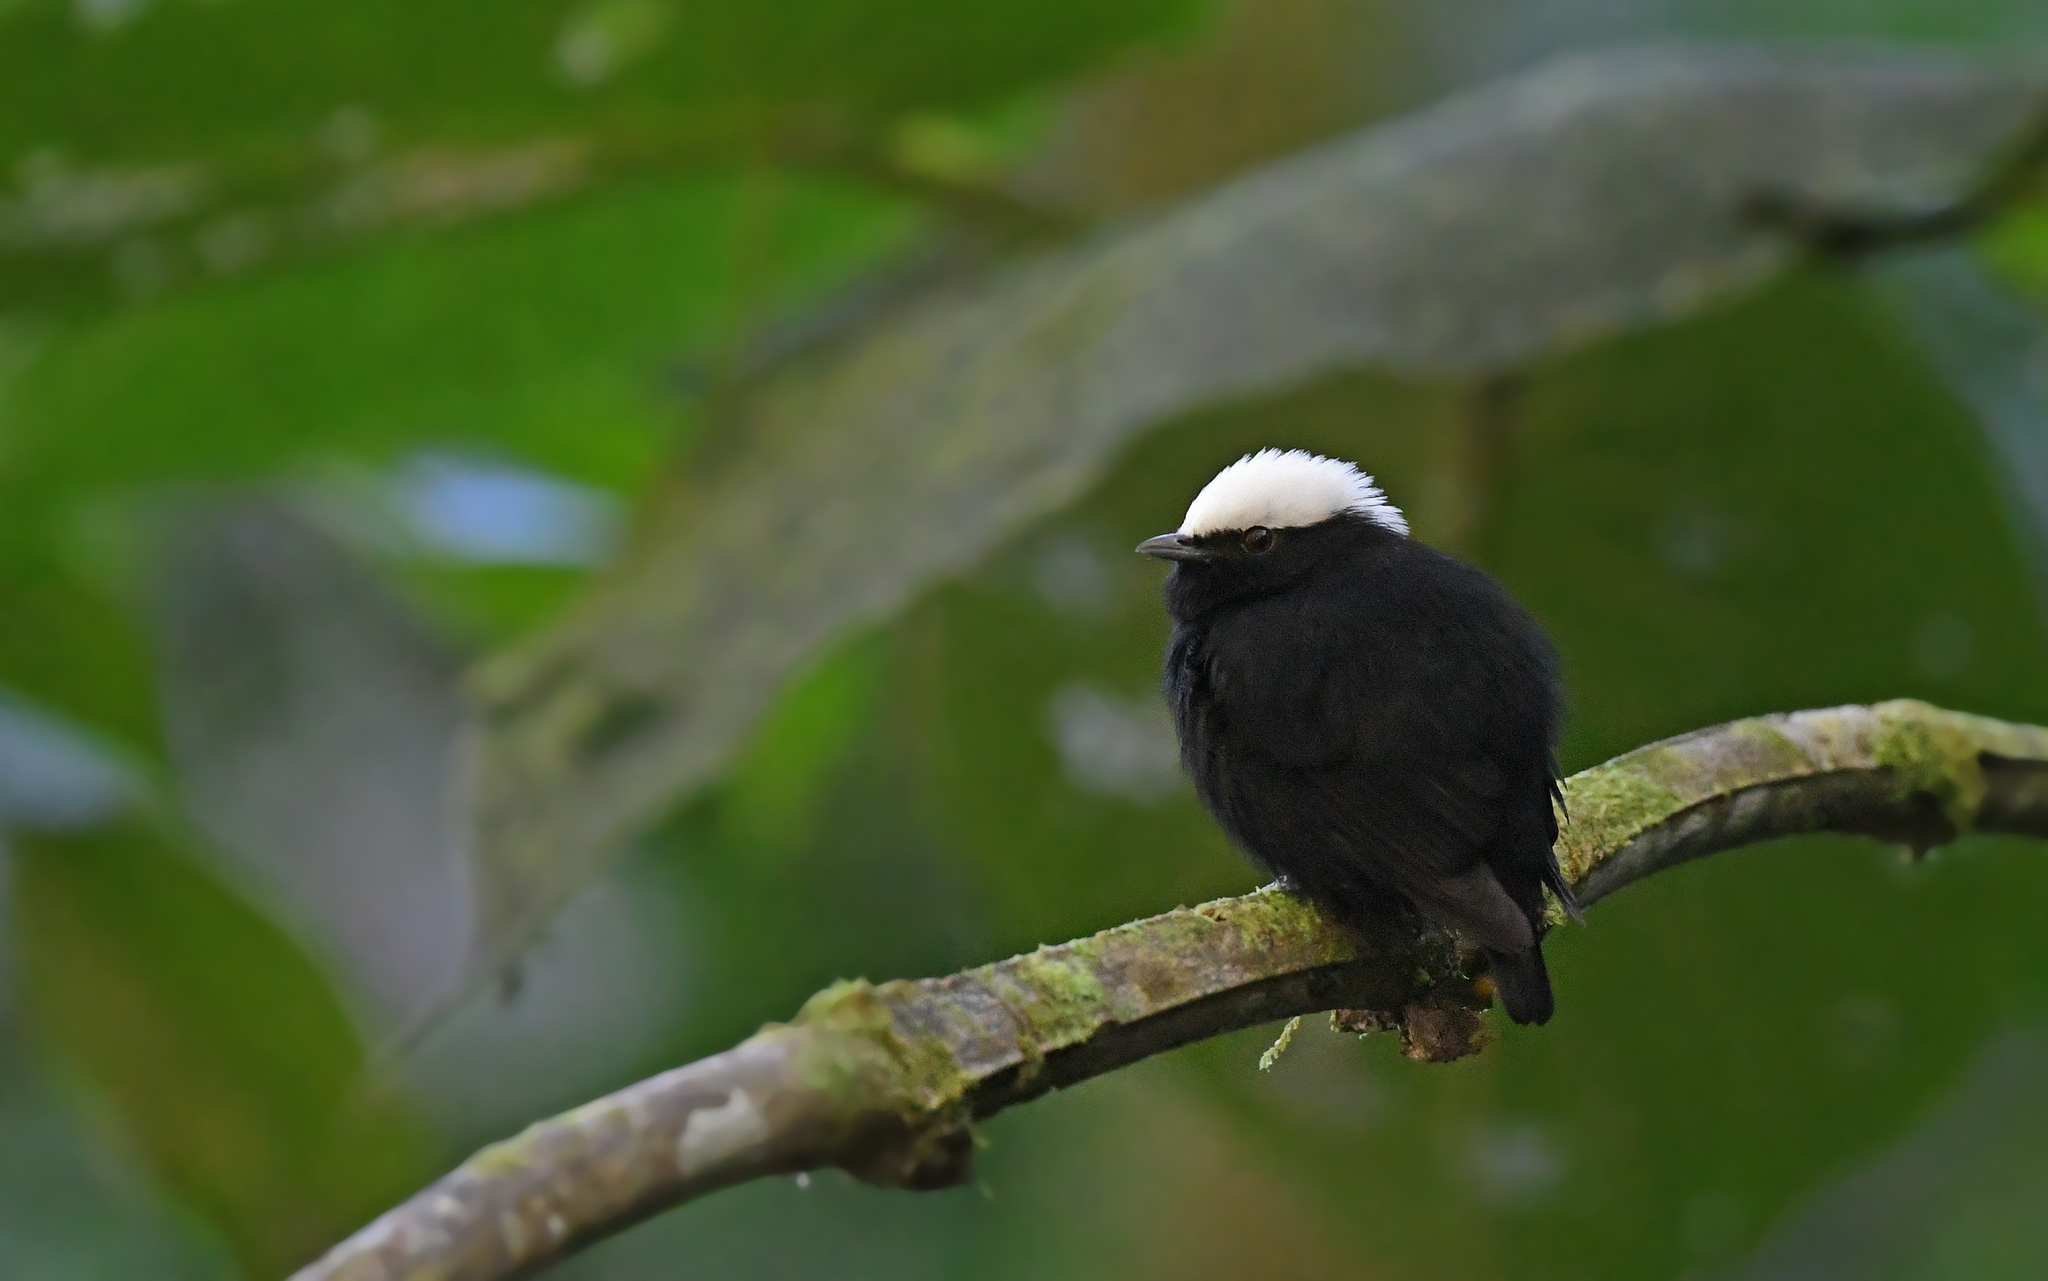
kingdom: Animalia
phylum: Chordata
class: Aves
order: Passeriformes
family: Pipridae
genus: Pipra
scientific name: Pipra pipra
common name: White-crowned manakin
